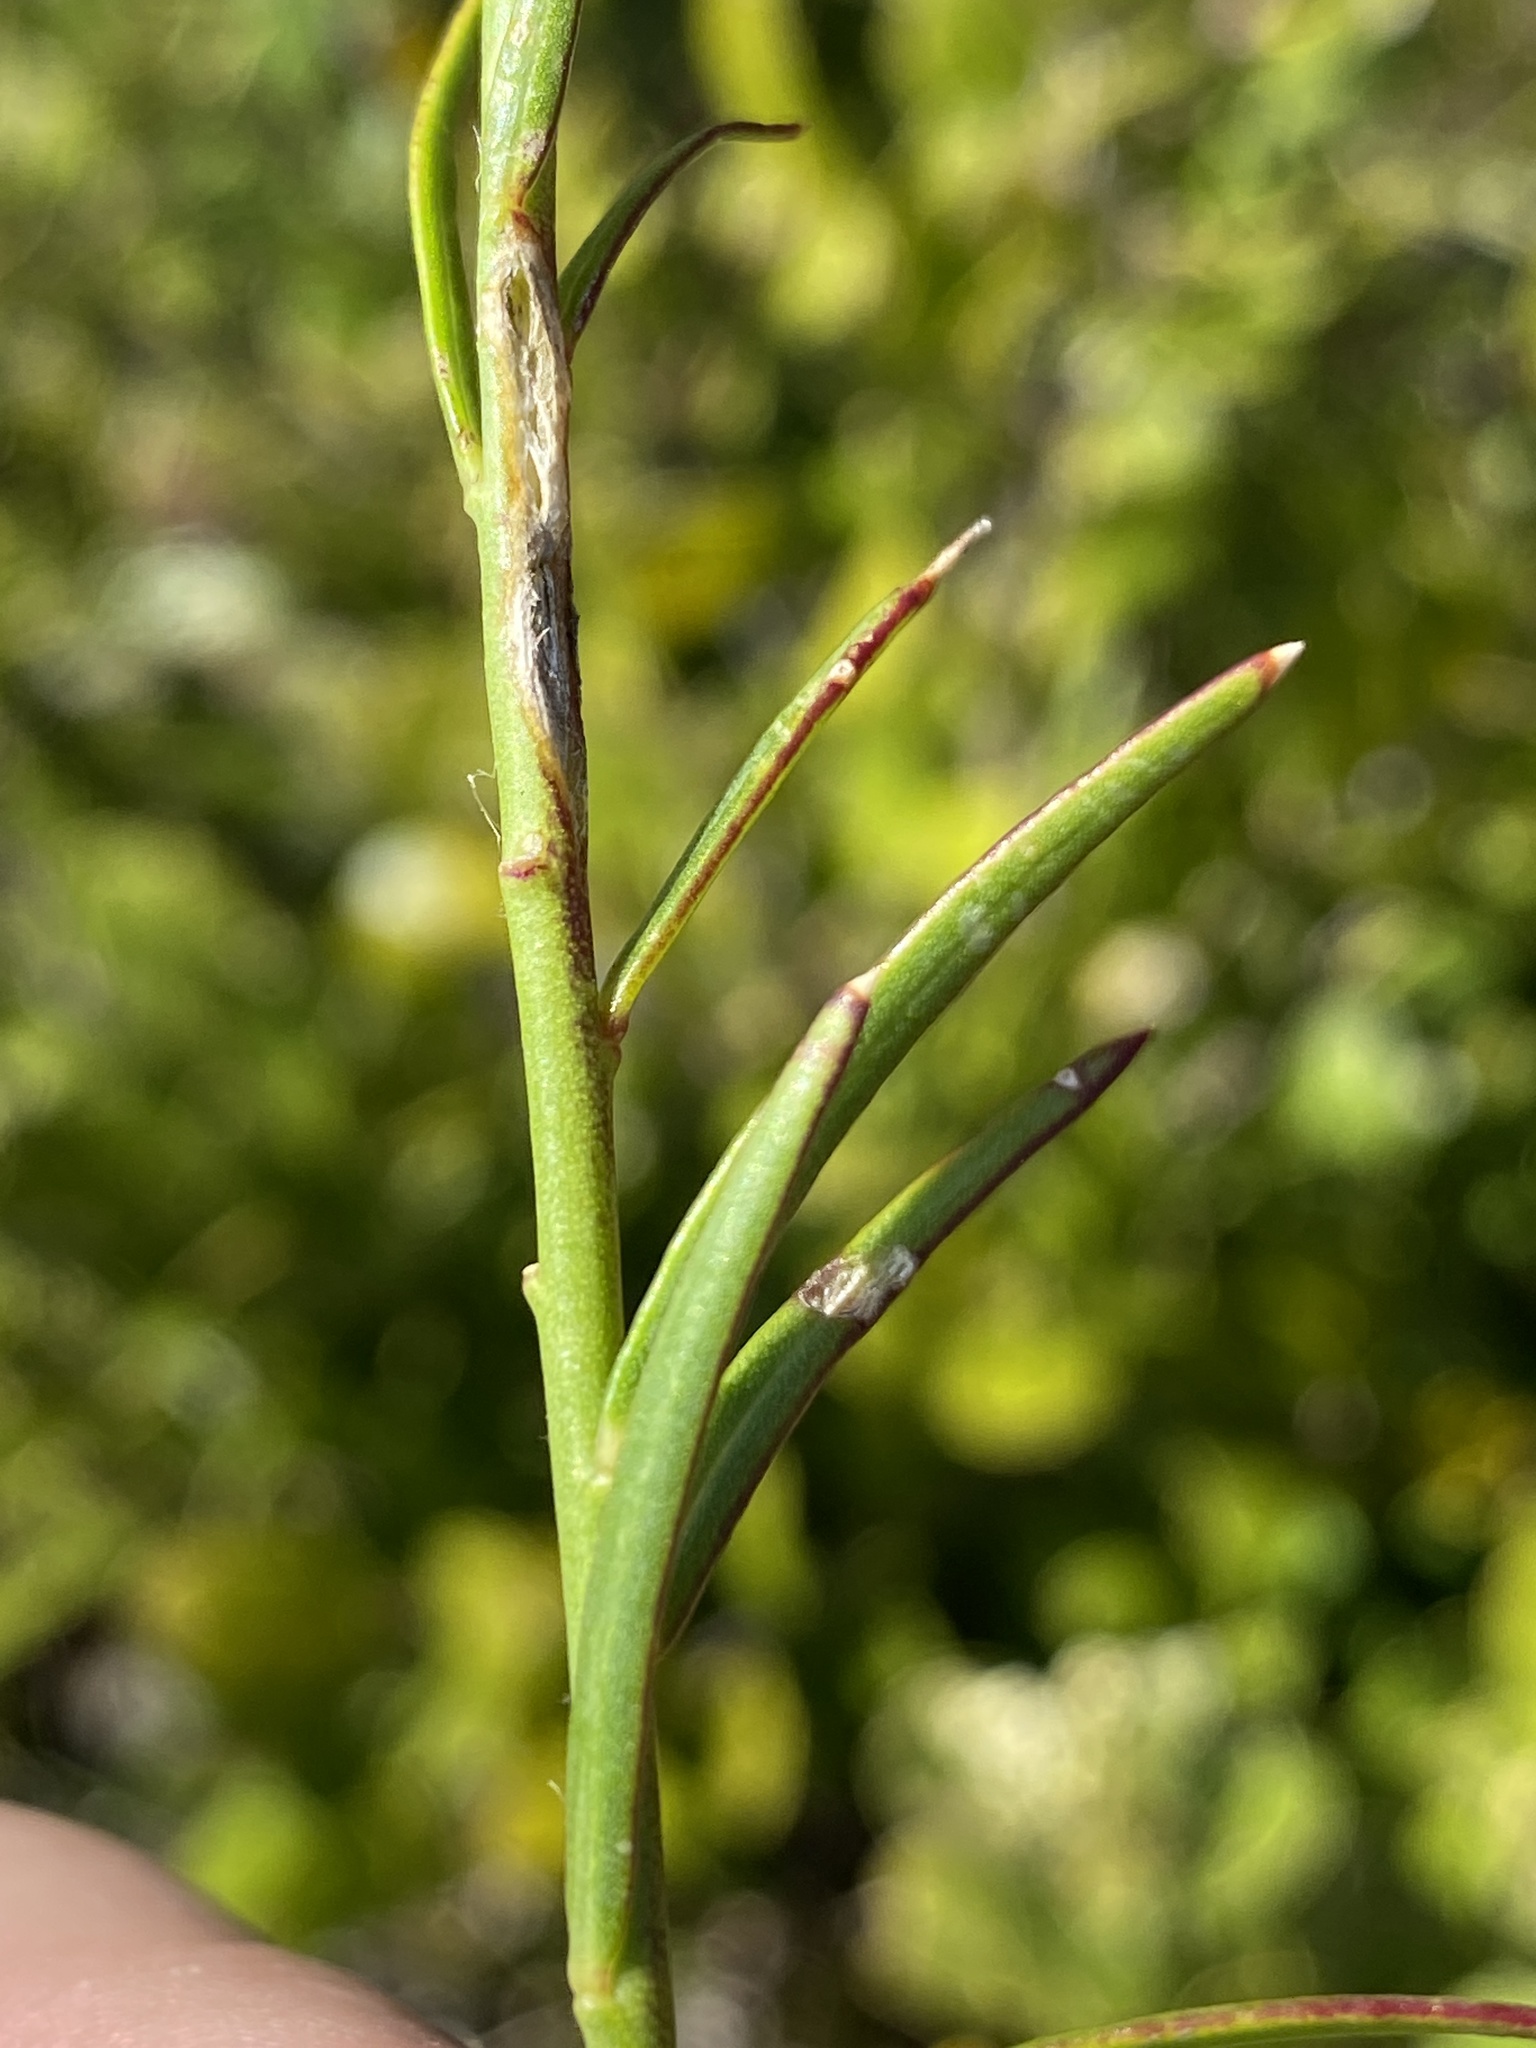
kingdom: Plantae
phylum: Tracheophyta
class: Magnoliopsida
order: Fabales
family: Polygalaceae
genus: Polygala
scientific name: Polygala bracteolata
